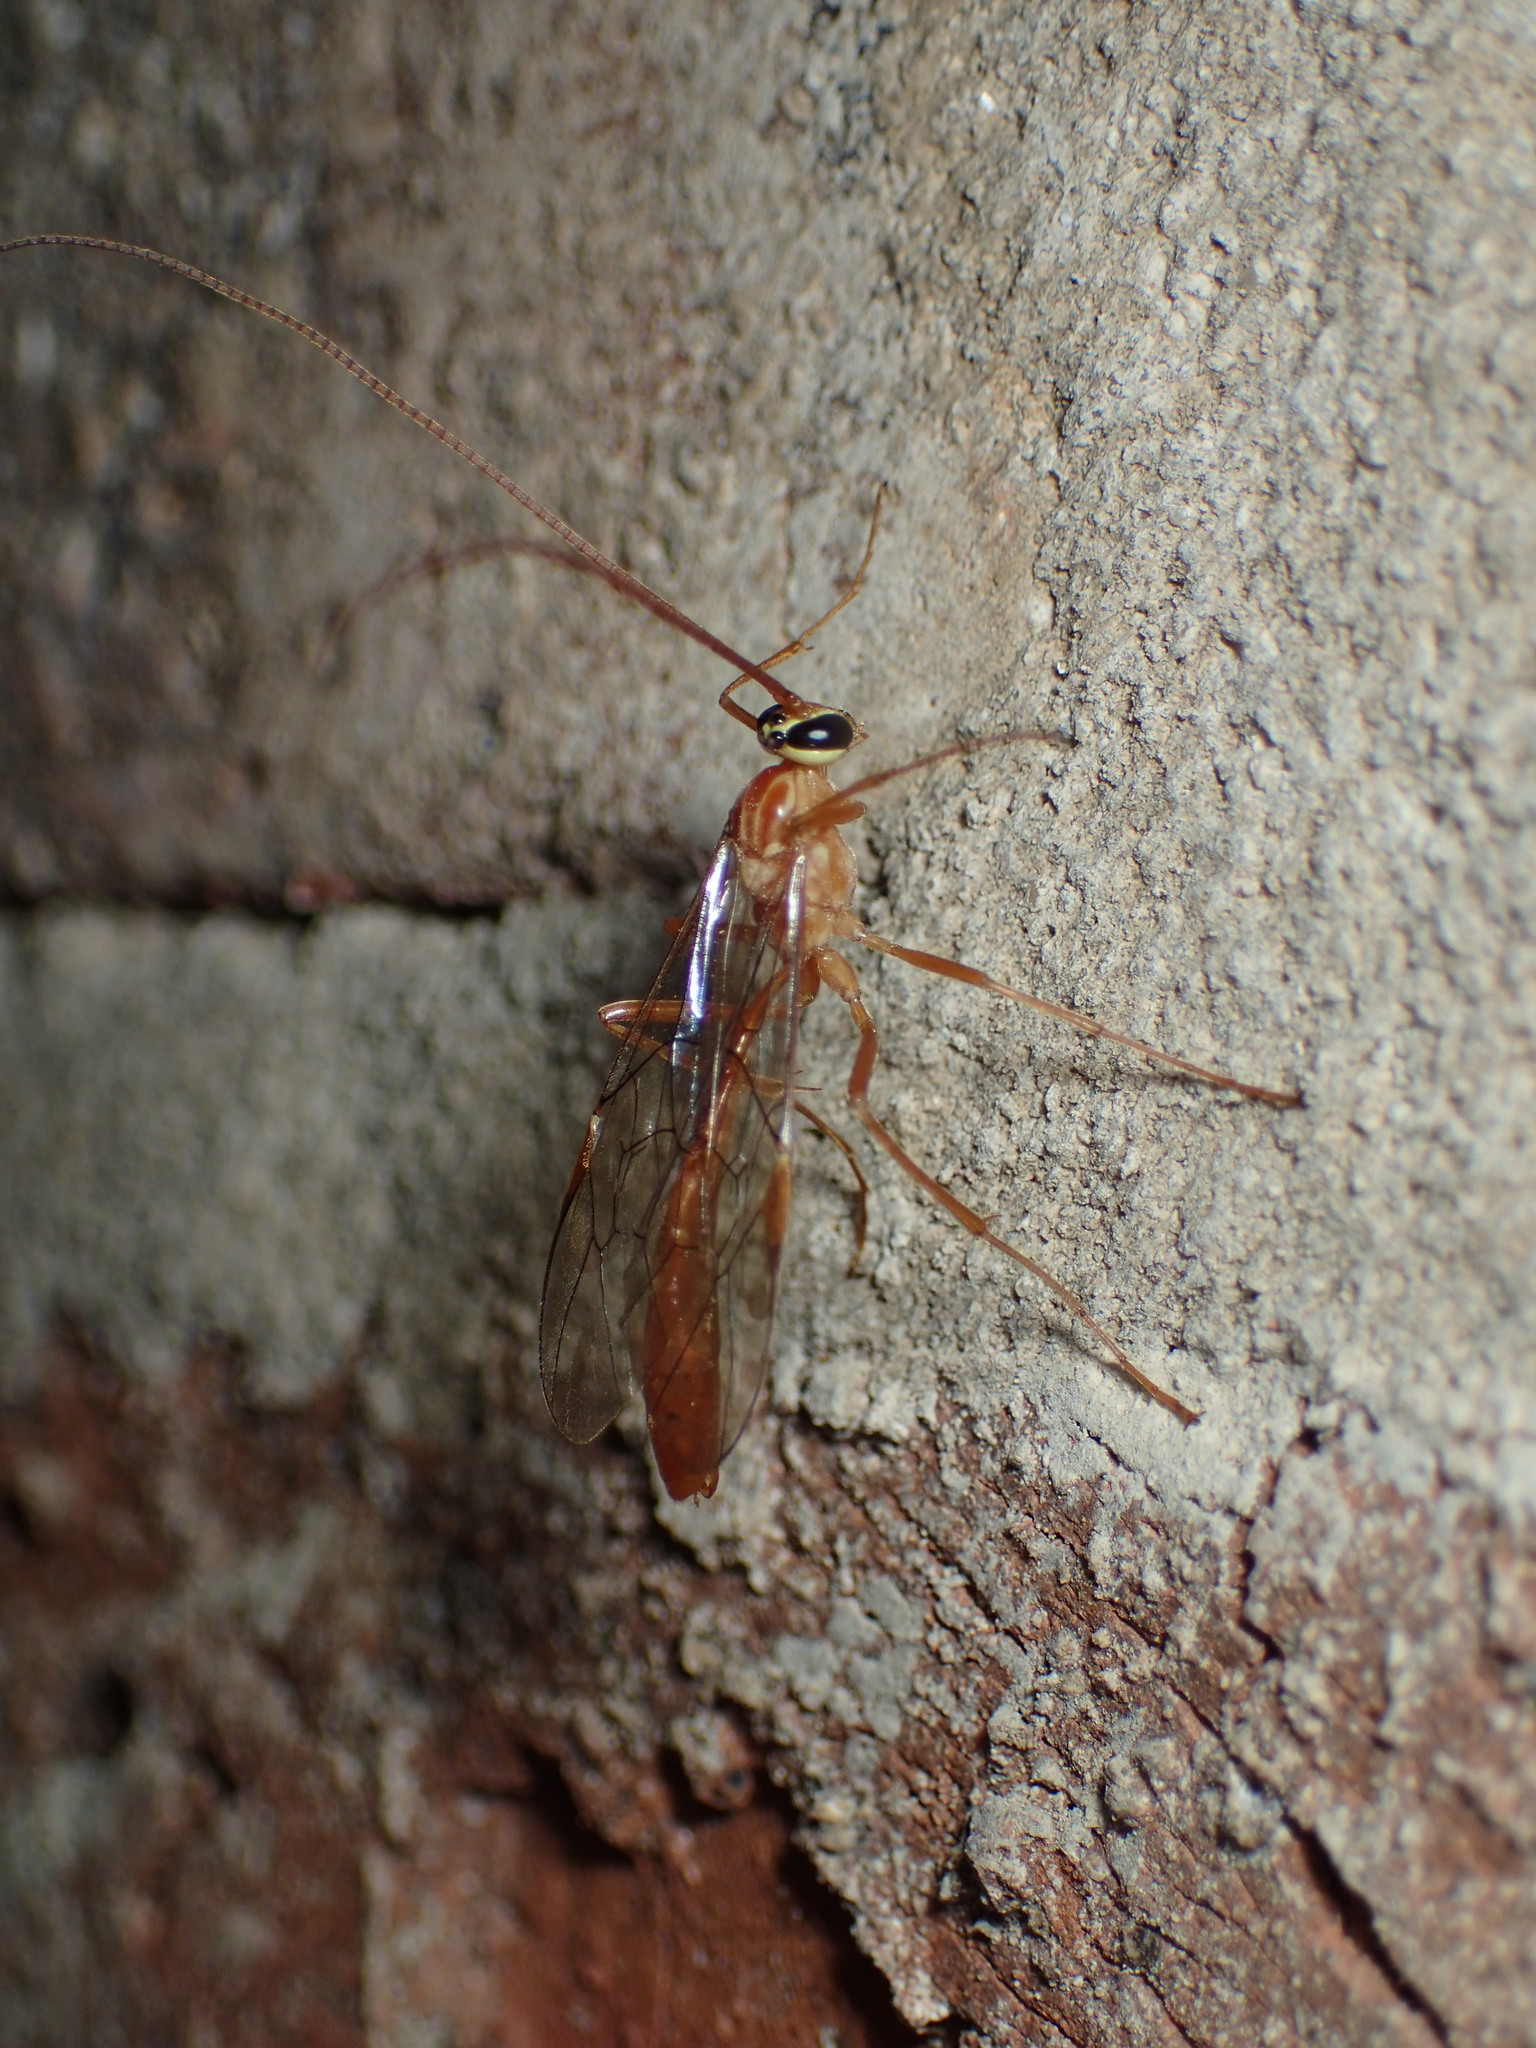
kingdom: Animalia
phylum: Arthropoda
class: Insecta
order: Hymenoptera
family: Ichneumonidae
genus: Ophion
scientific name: Ophion
